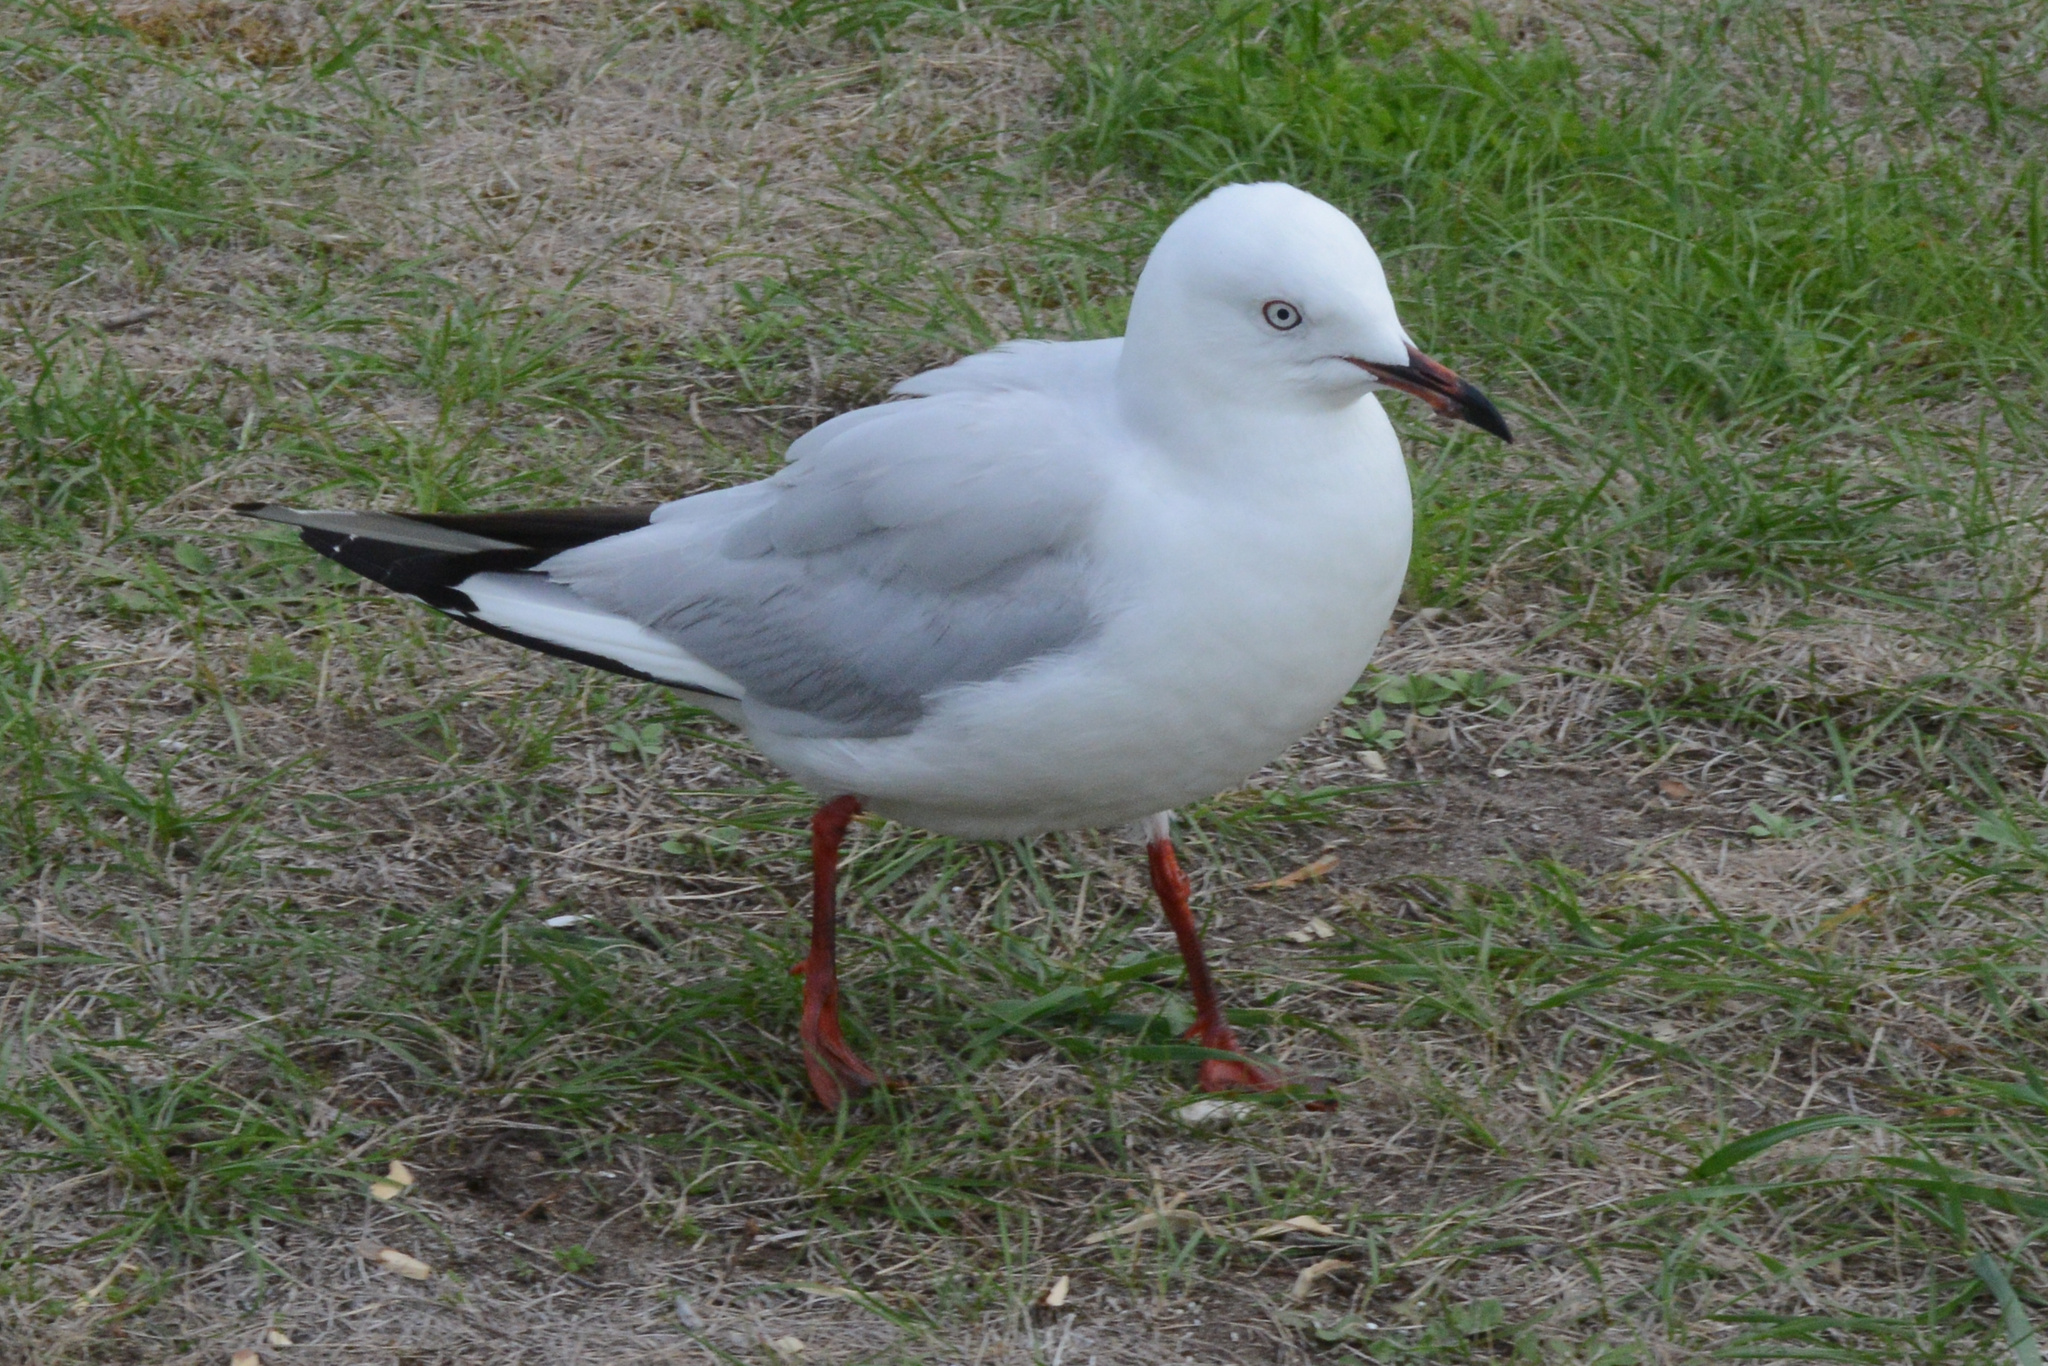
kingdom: Animalia
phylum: Chordata
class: Aves
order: Charadriiformes
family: Laridae
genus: Chroicocephalus
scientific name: Chroicocephalus bulleri
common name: Black-billed gull
